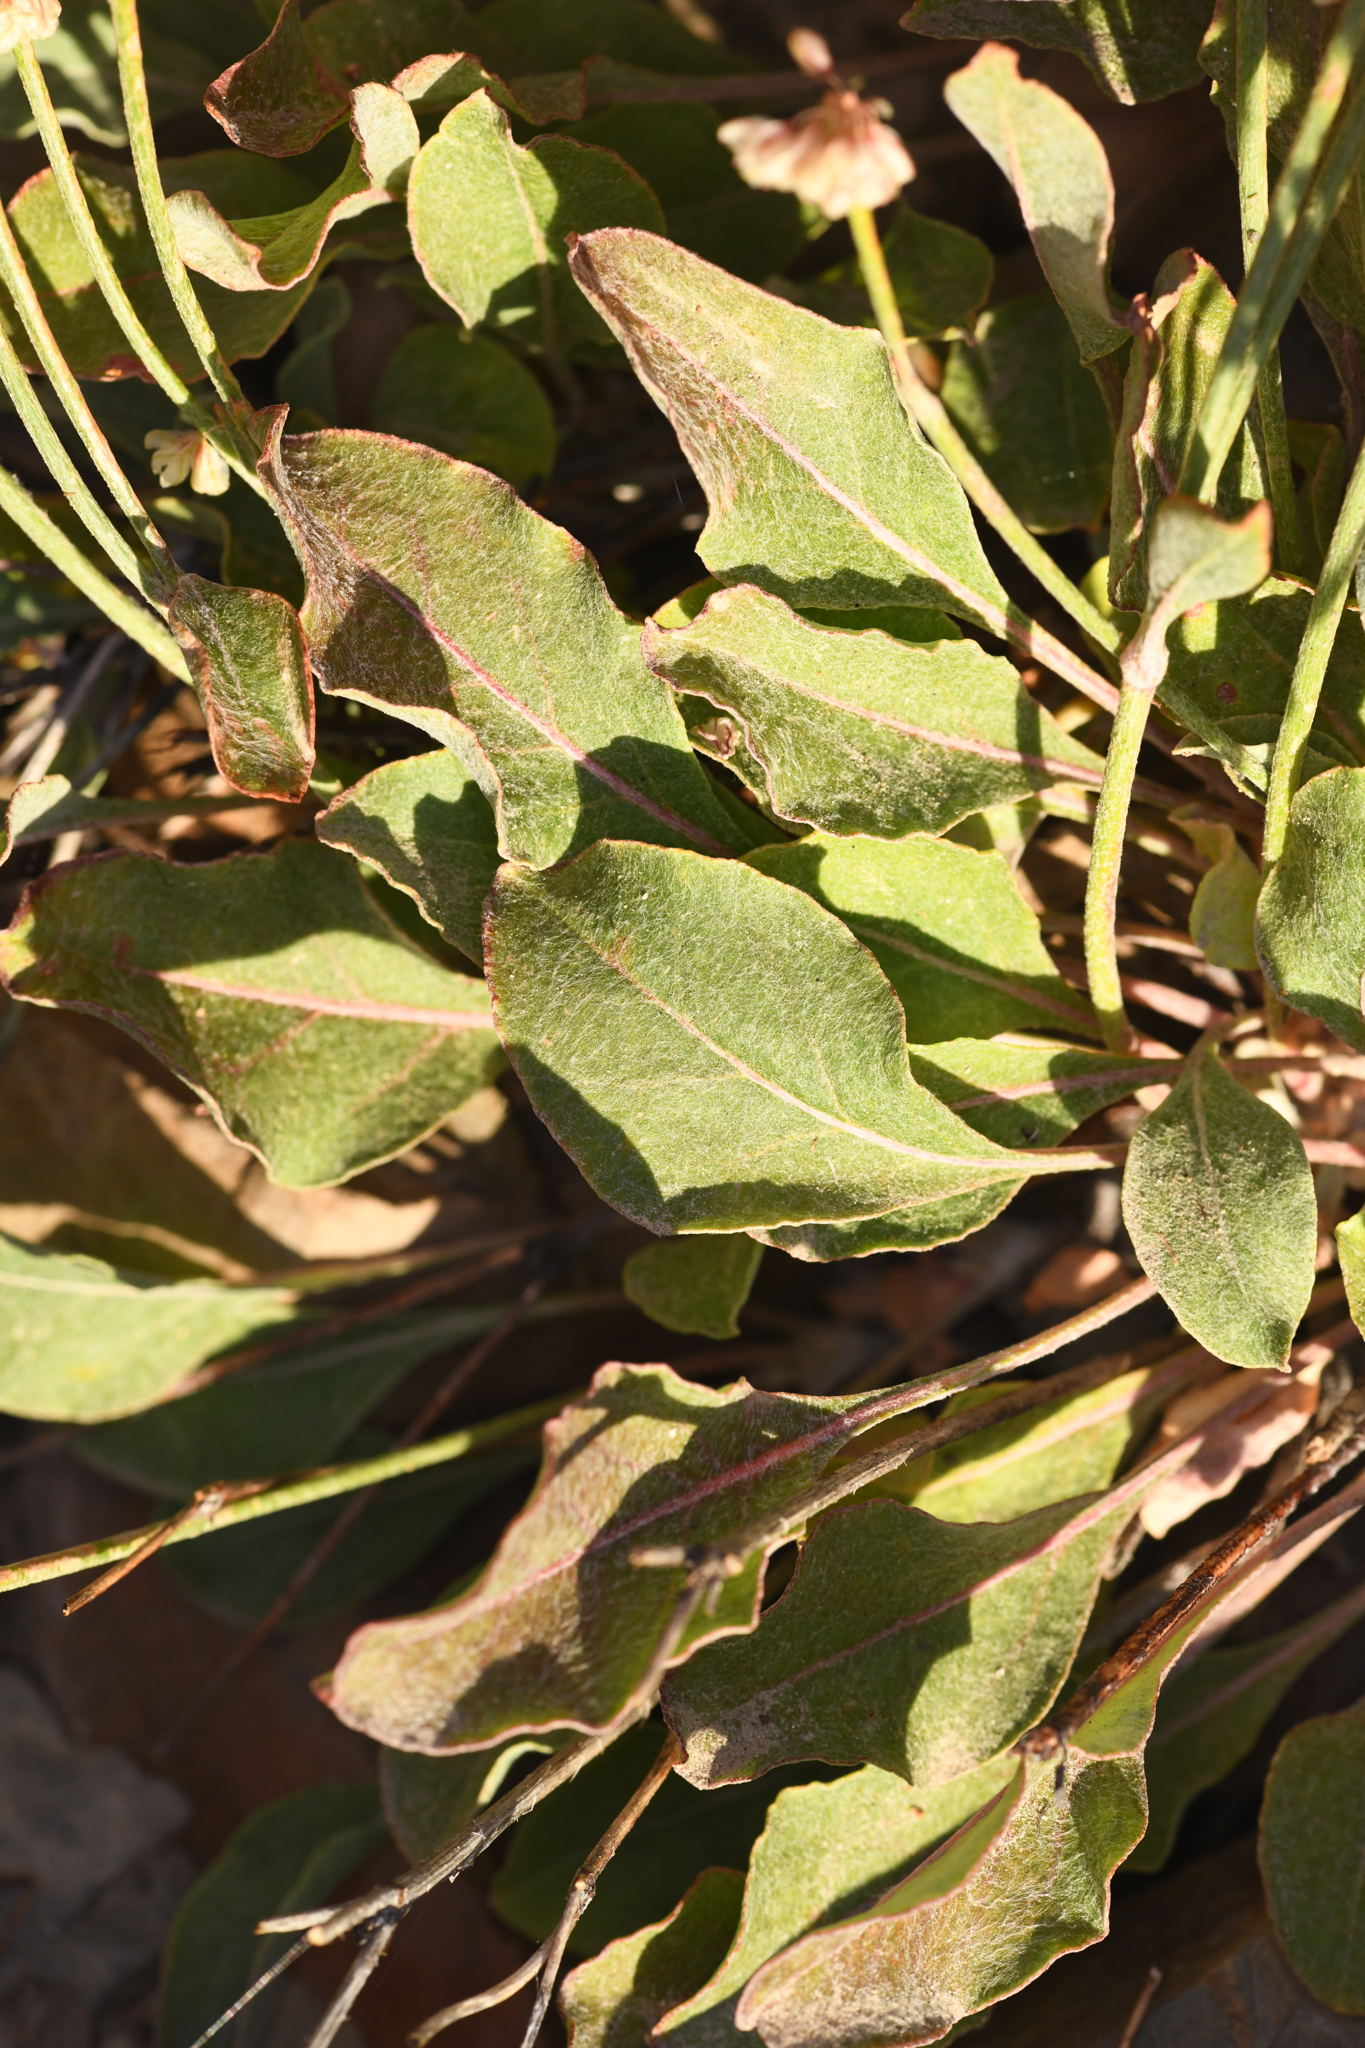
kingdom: Plantae
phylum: Tracheophyta
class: Magnoliopsida
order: Caryophyllales
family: Polygonaceae
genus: Eriogonum
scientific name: Eriogonum rupinum
